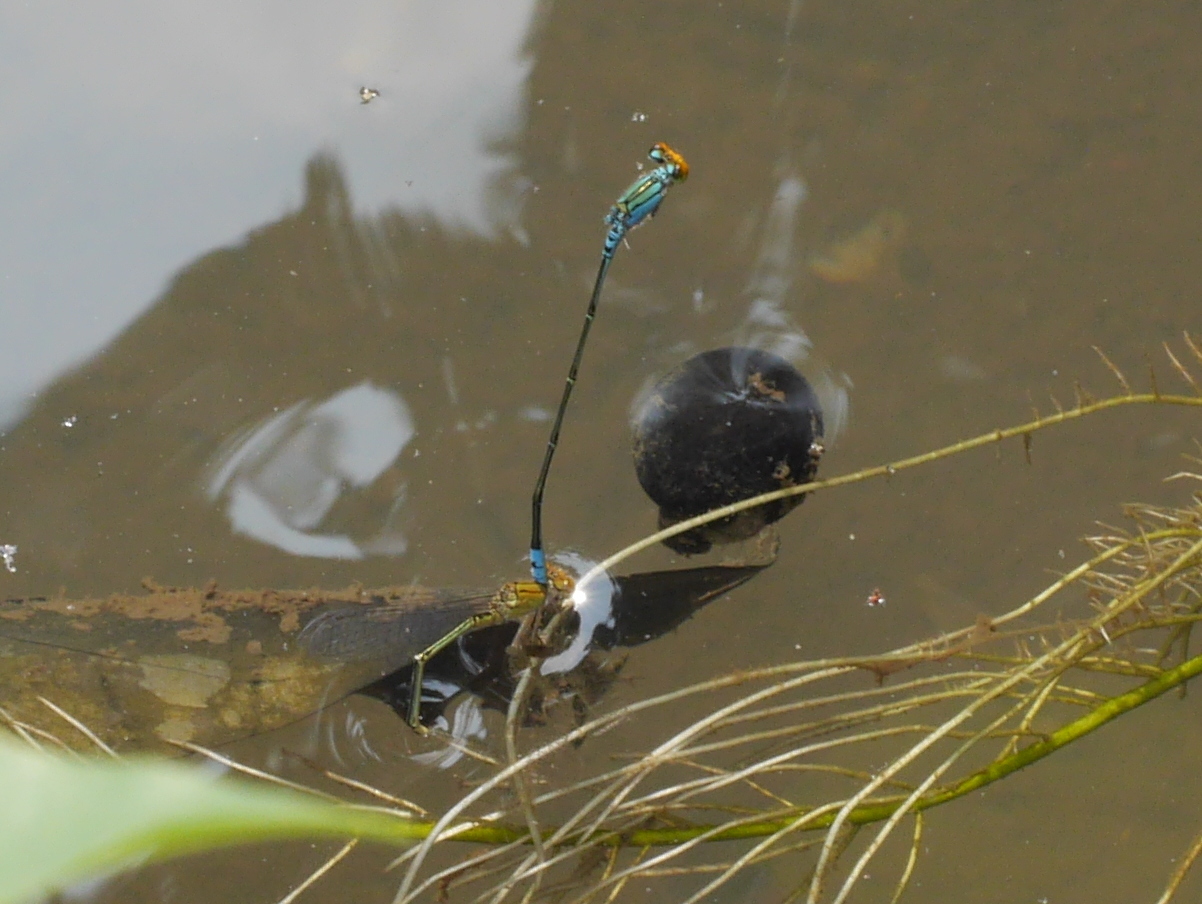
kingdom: Animalia
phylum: Arthropoda
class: Insecta
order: Odonata
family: Coenagrionidae
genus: Pseudagrion
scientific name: Pseudagrion rubriceps
